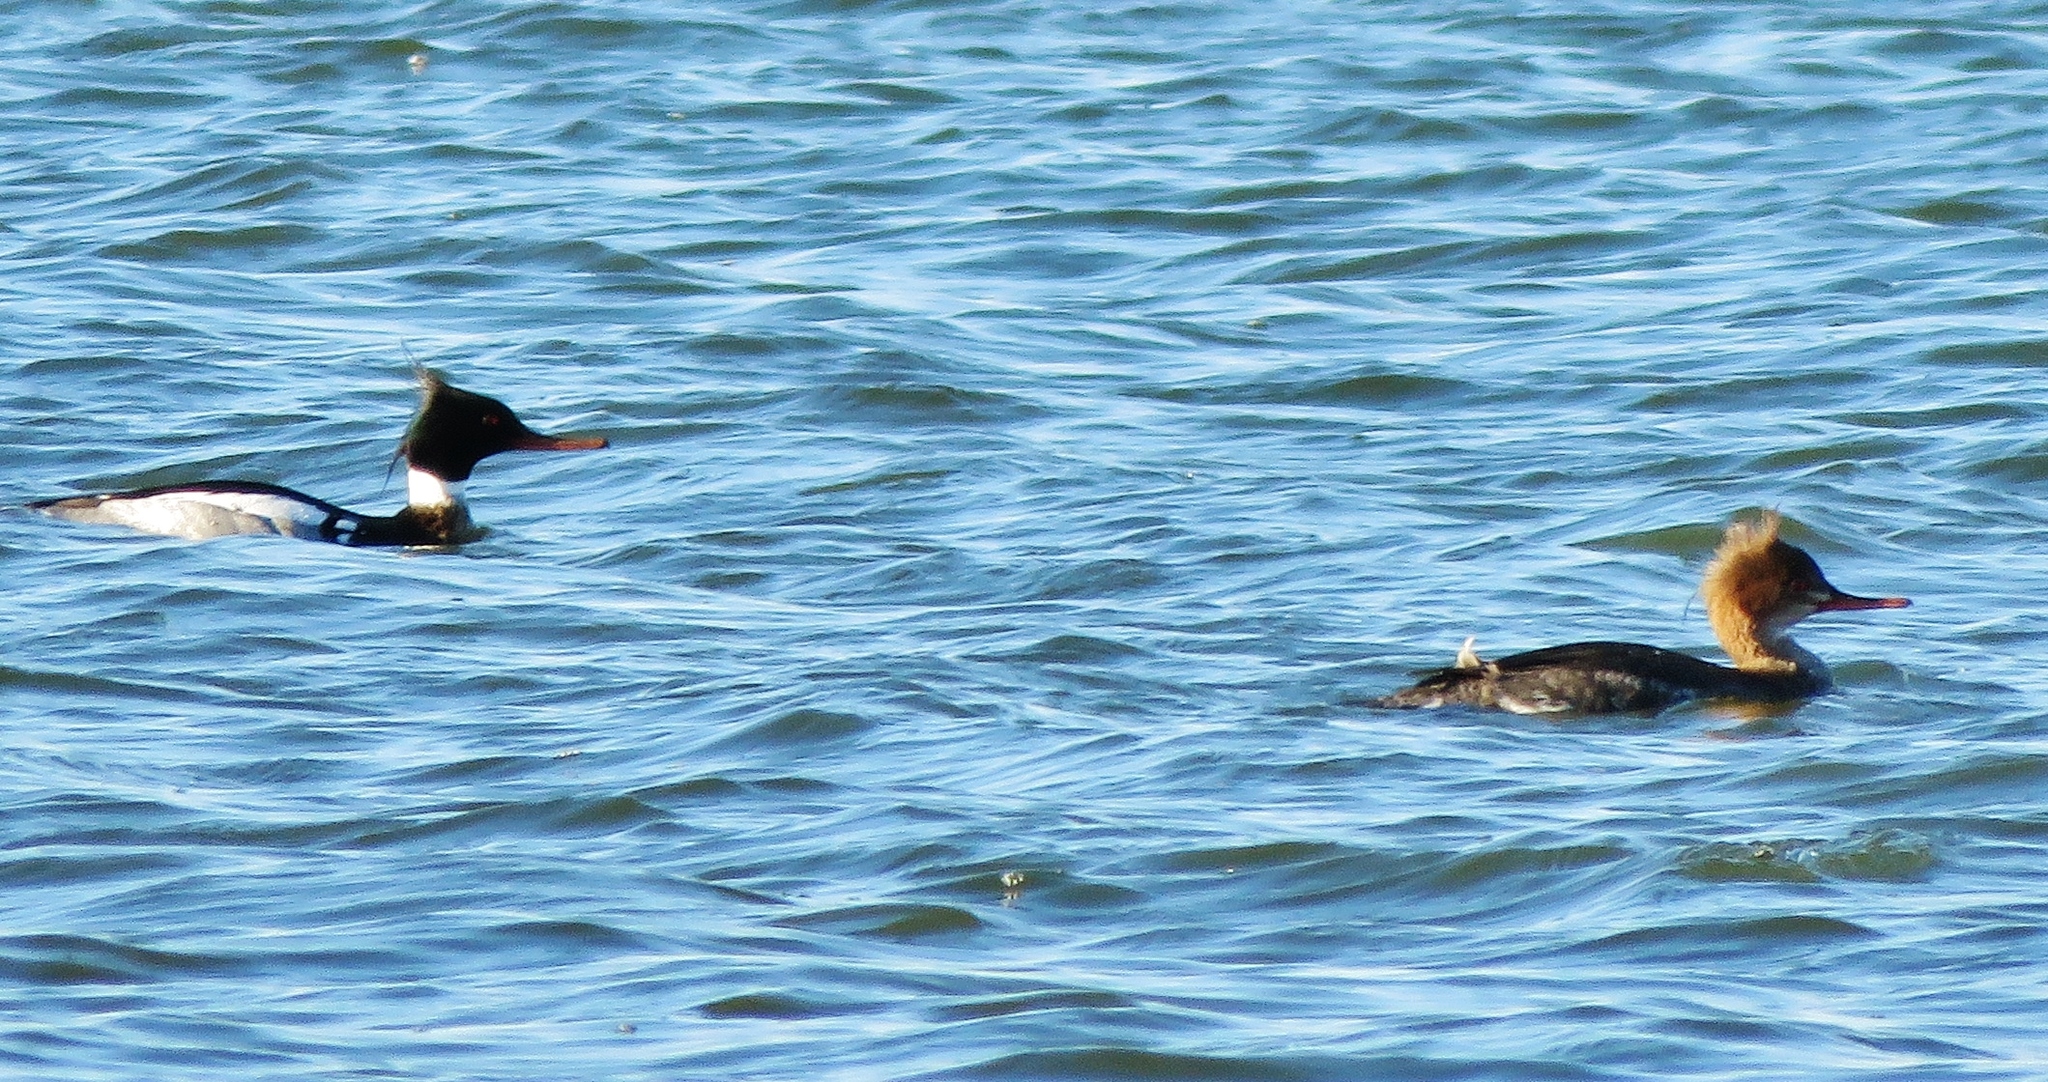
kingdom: Animalia
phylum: Chordata
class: Aves
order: Anseriformes
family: Anatidae
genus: Mergus
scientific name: Mergus serrator
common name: Red-breasted merganser
